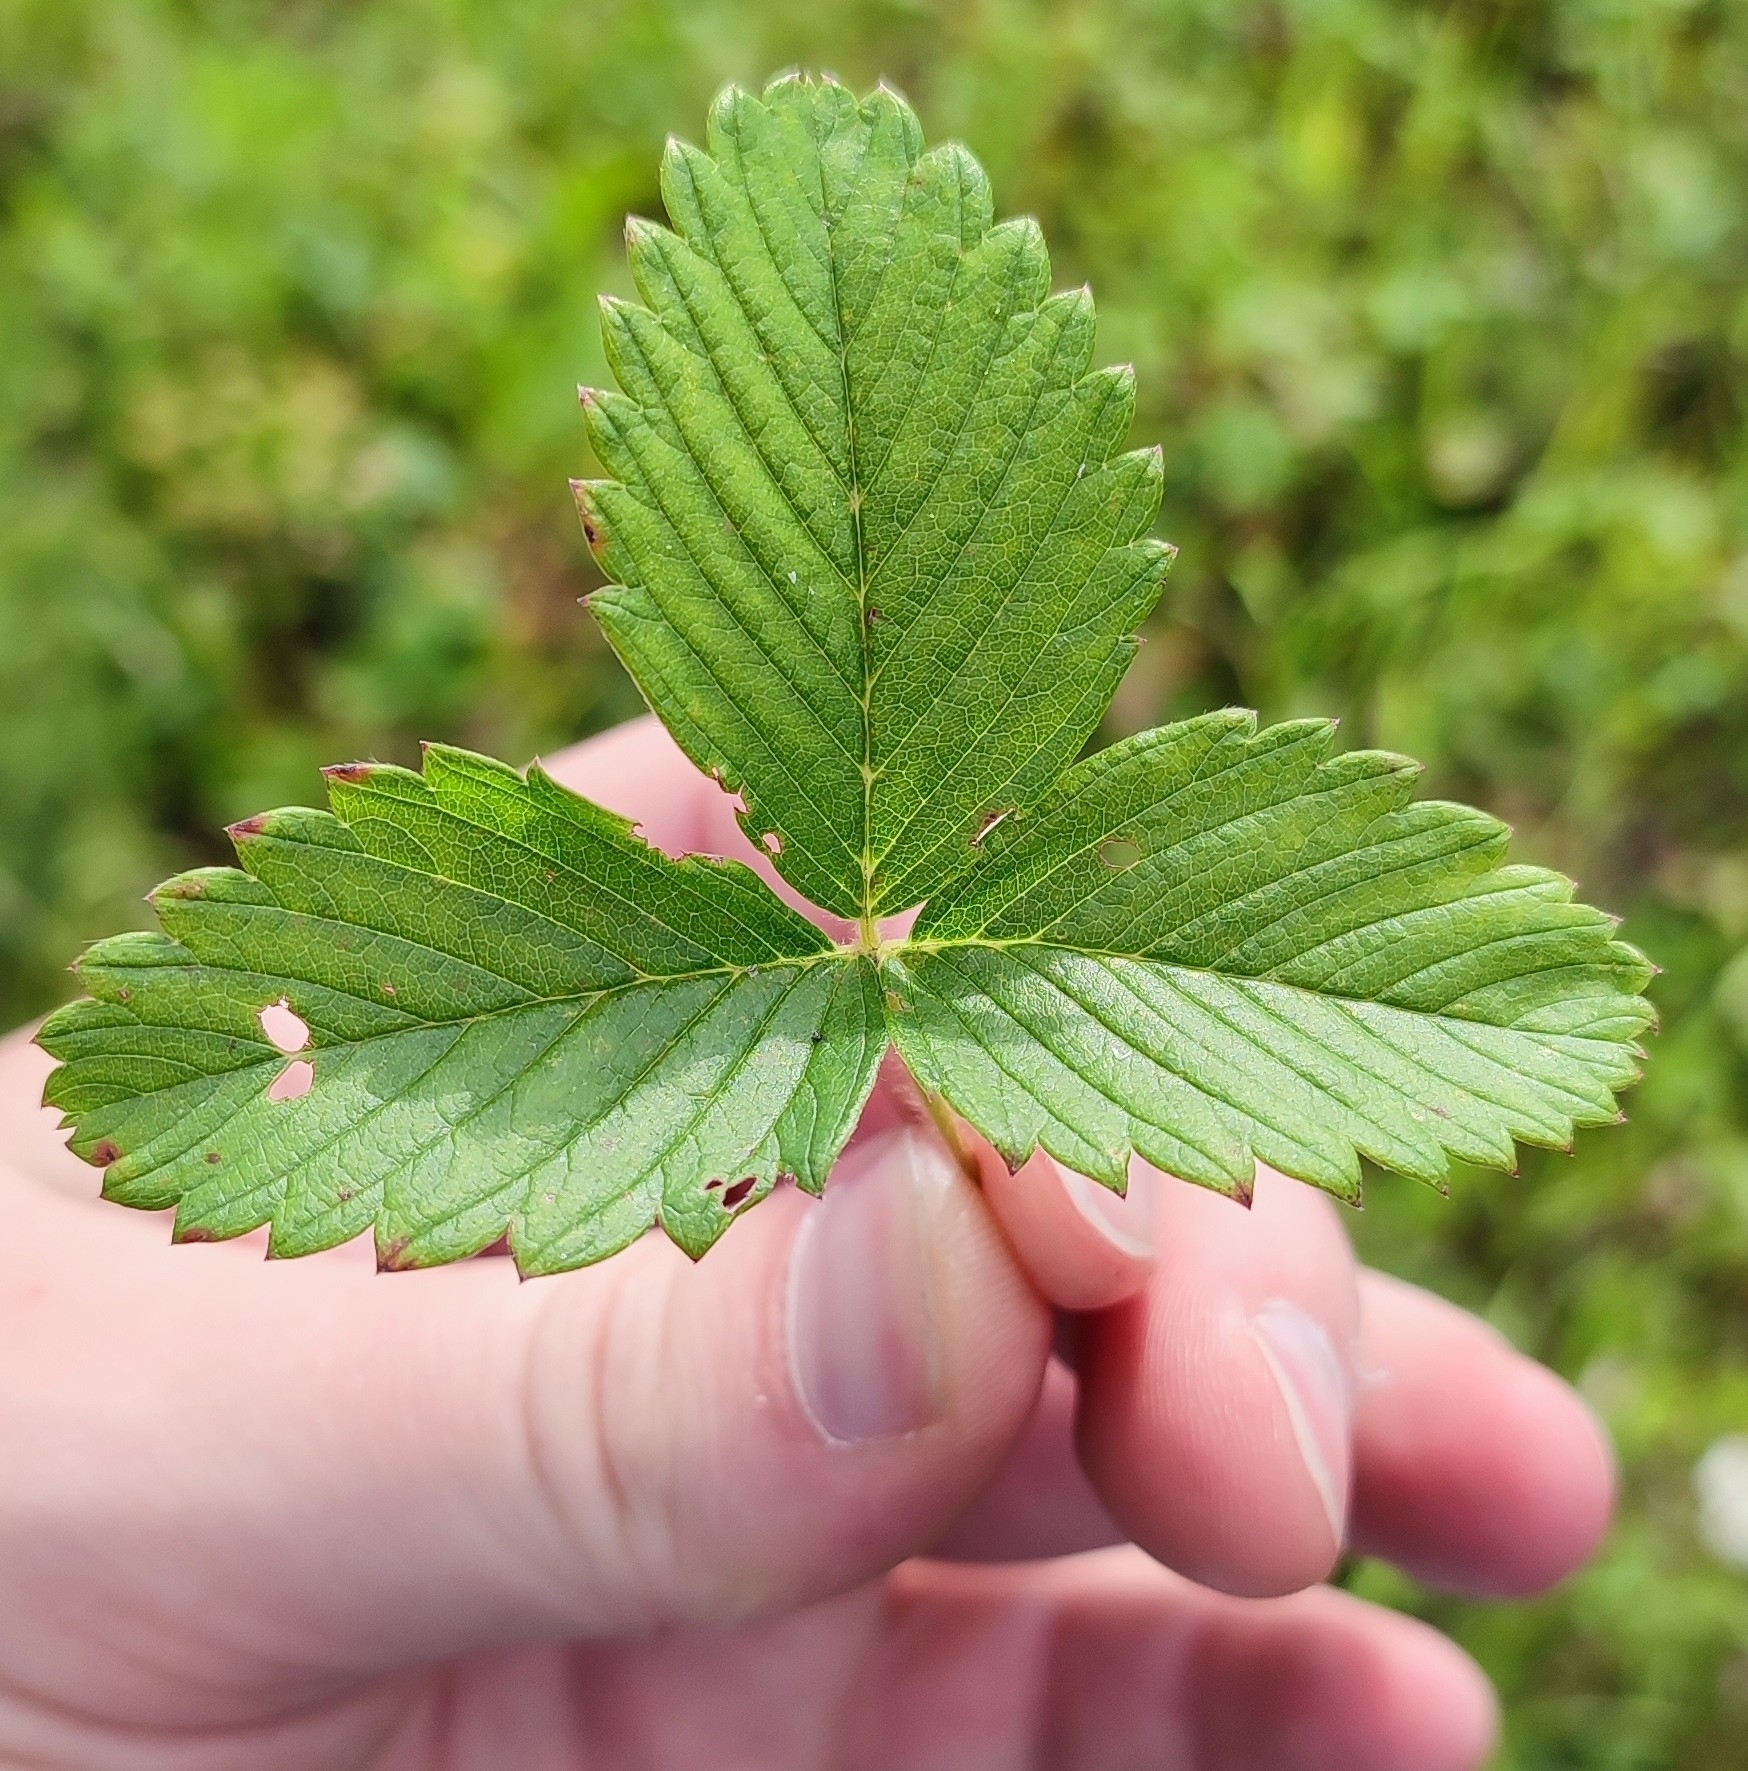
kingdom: Plantae
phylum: Tracheophyta
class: Magnoliopsida
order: Rosales
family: Rosaceae
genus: Fragaria
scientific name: Fragaria viridis
